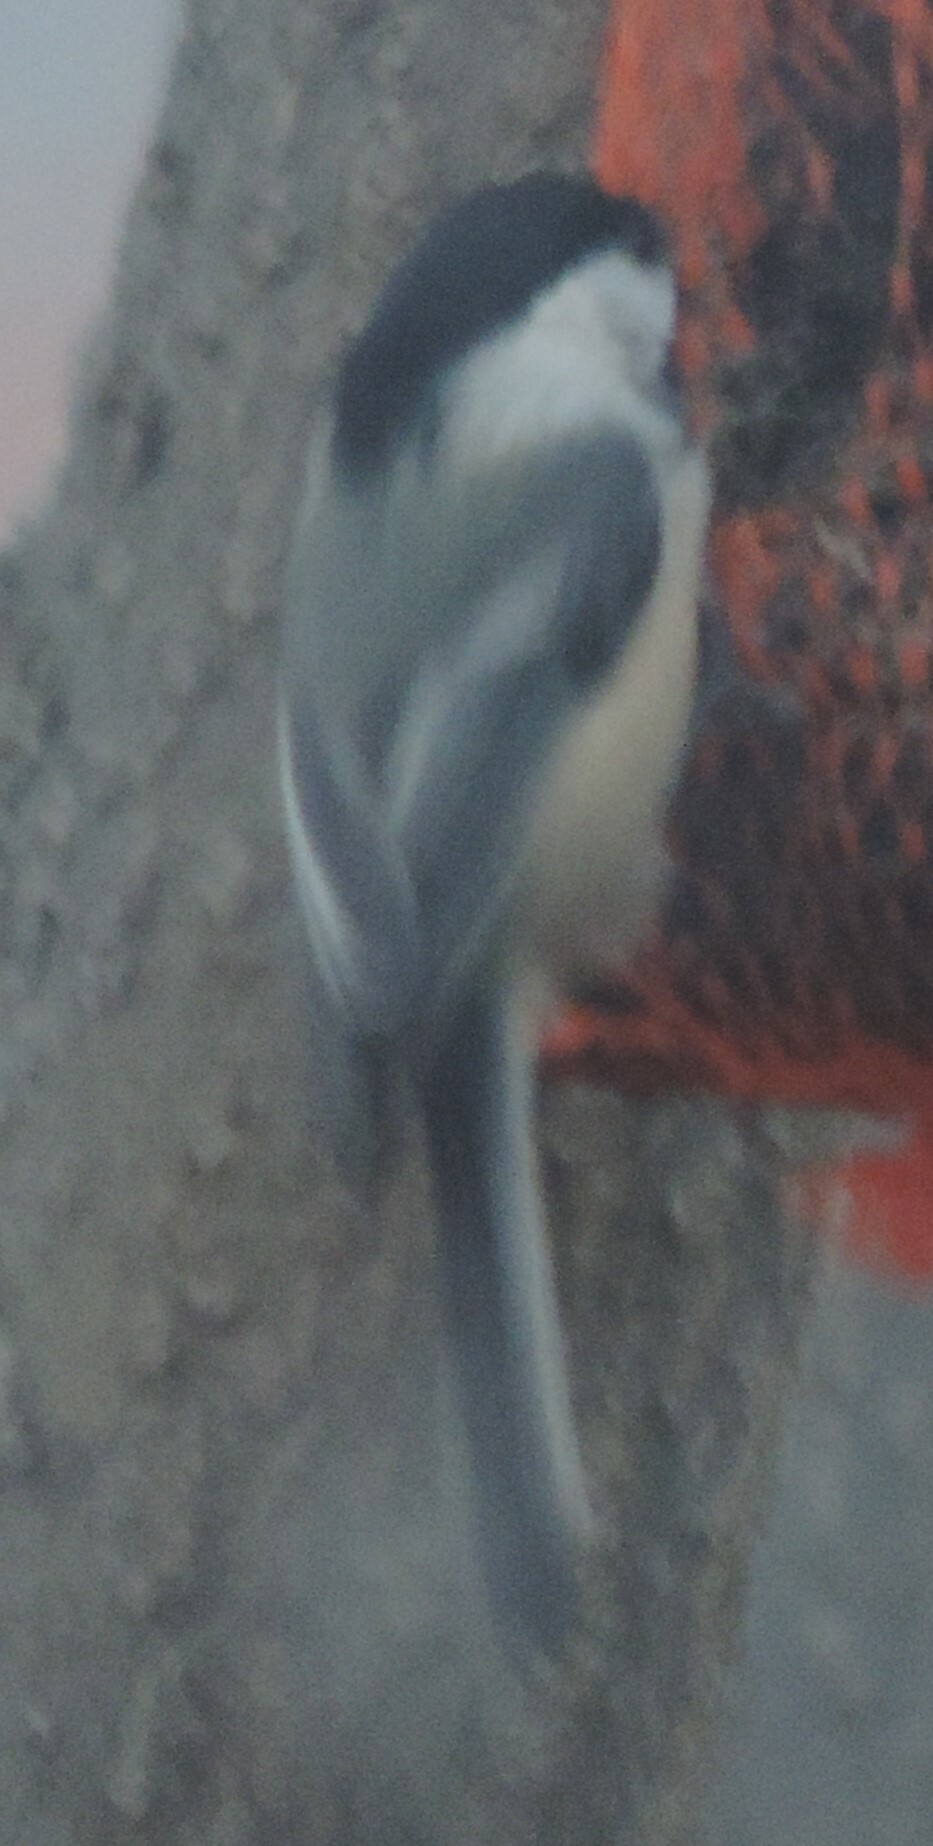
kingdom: Animalia
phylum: Chordata
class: Aves
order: Passeriformes
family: Paridae
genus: Poecile
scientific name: Poecile atricapillus
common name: Black-capped chickadee
